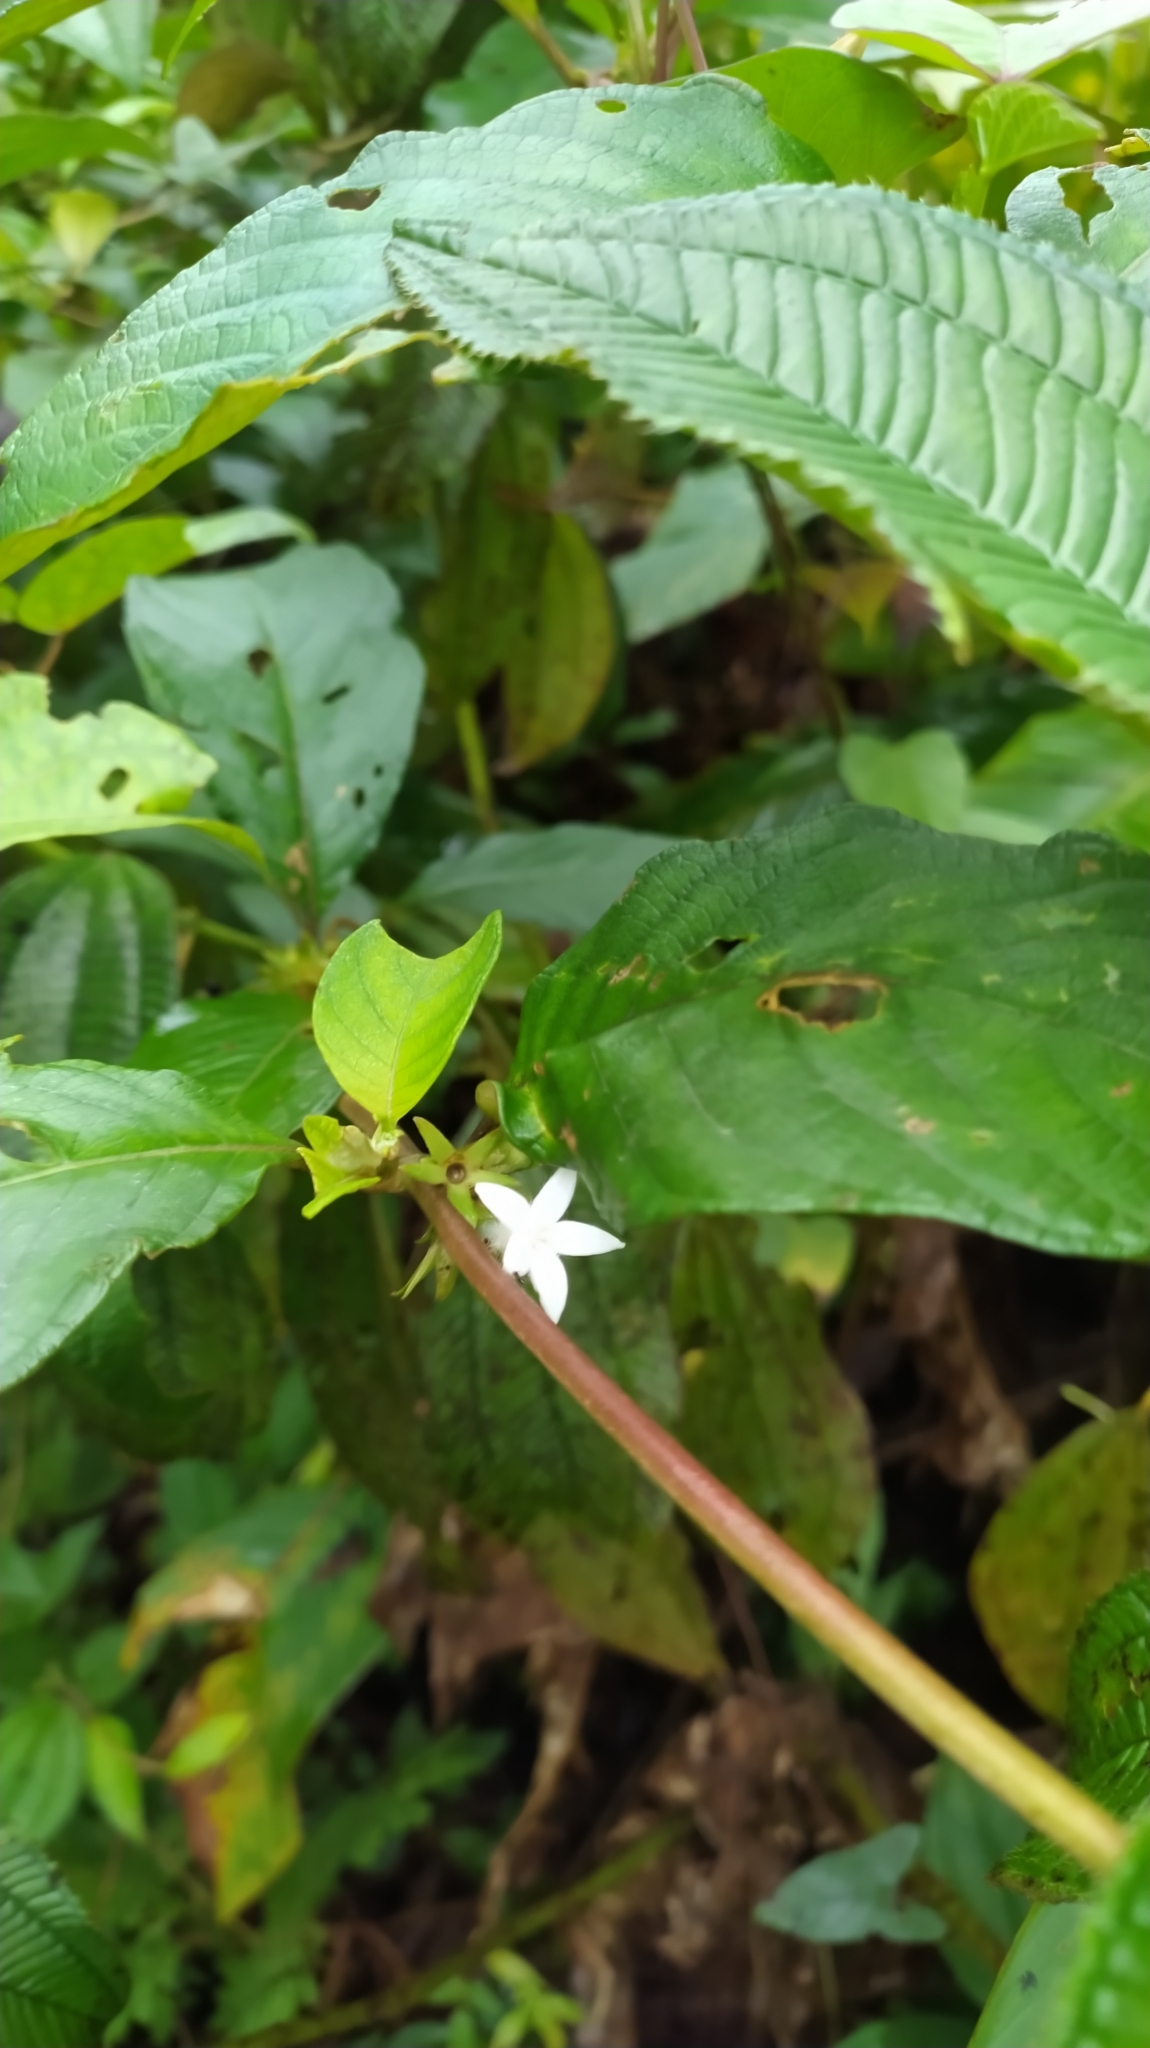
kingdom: Plantae
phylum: Tracheophyta
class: Magnoliopsida
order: Gentianales
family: Rubiaceae
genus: Sabicea
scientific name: Sabicea cinerea
